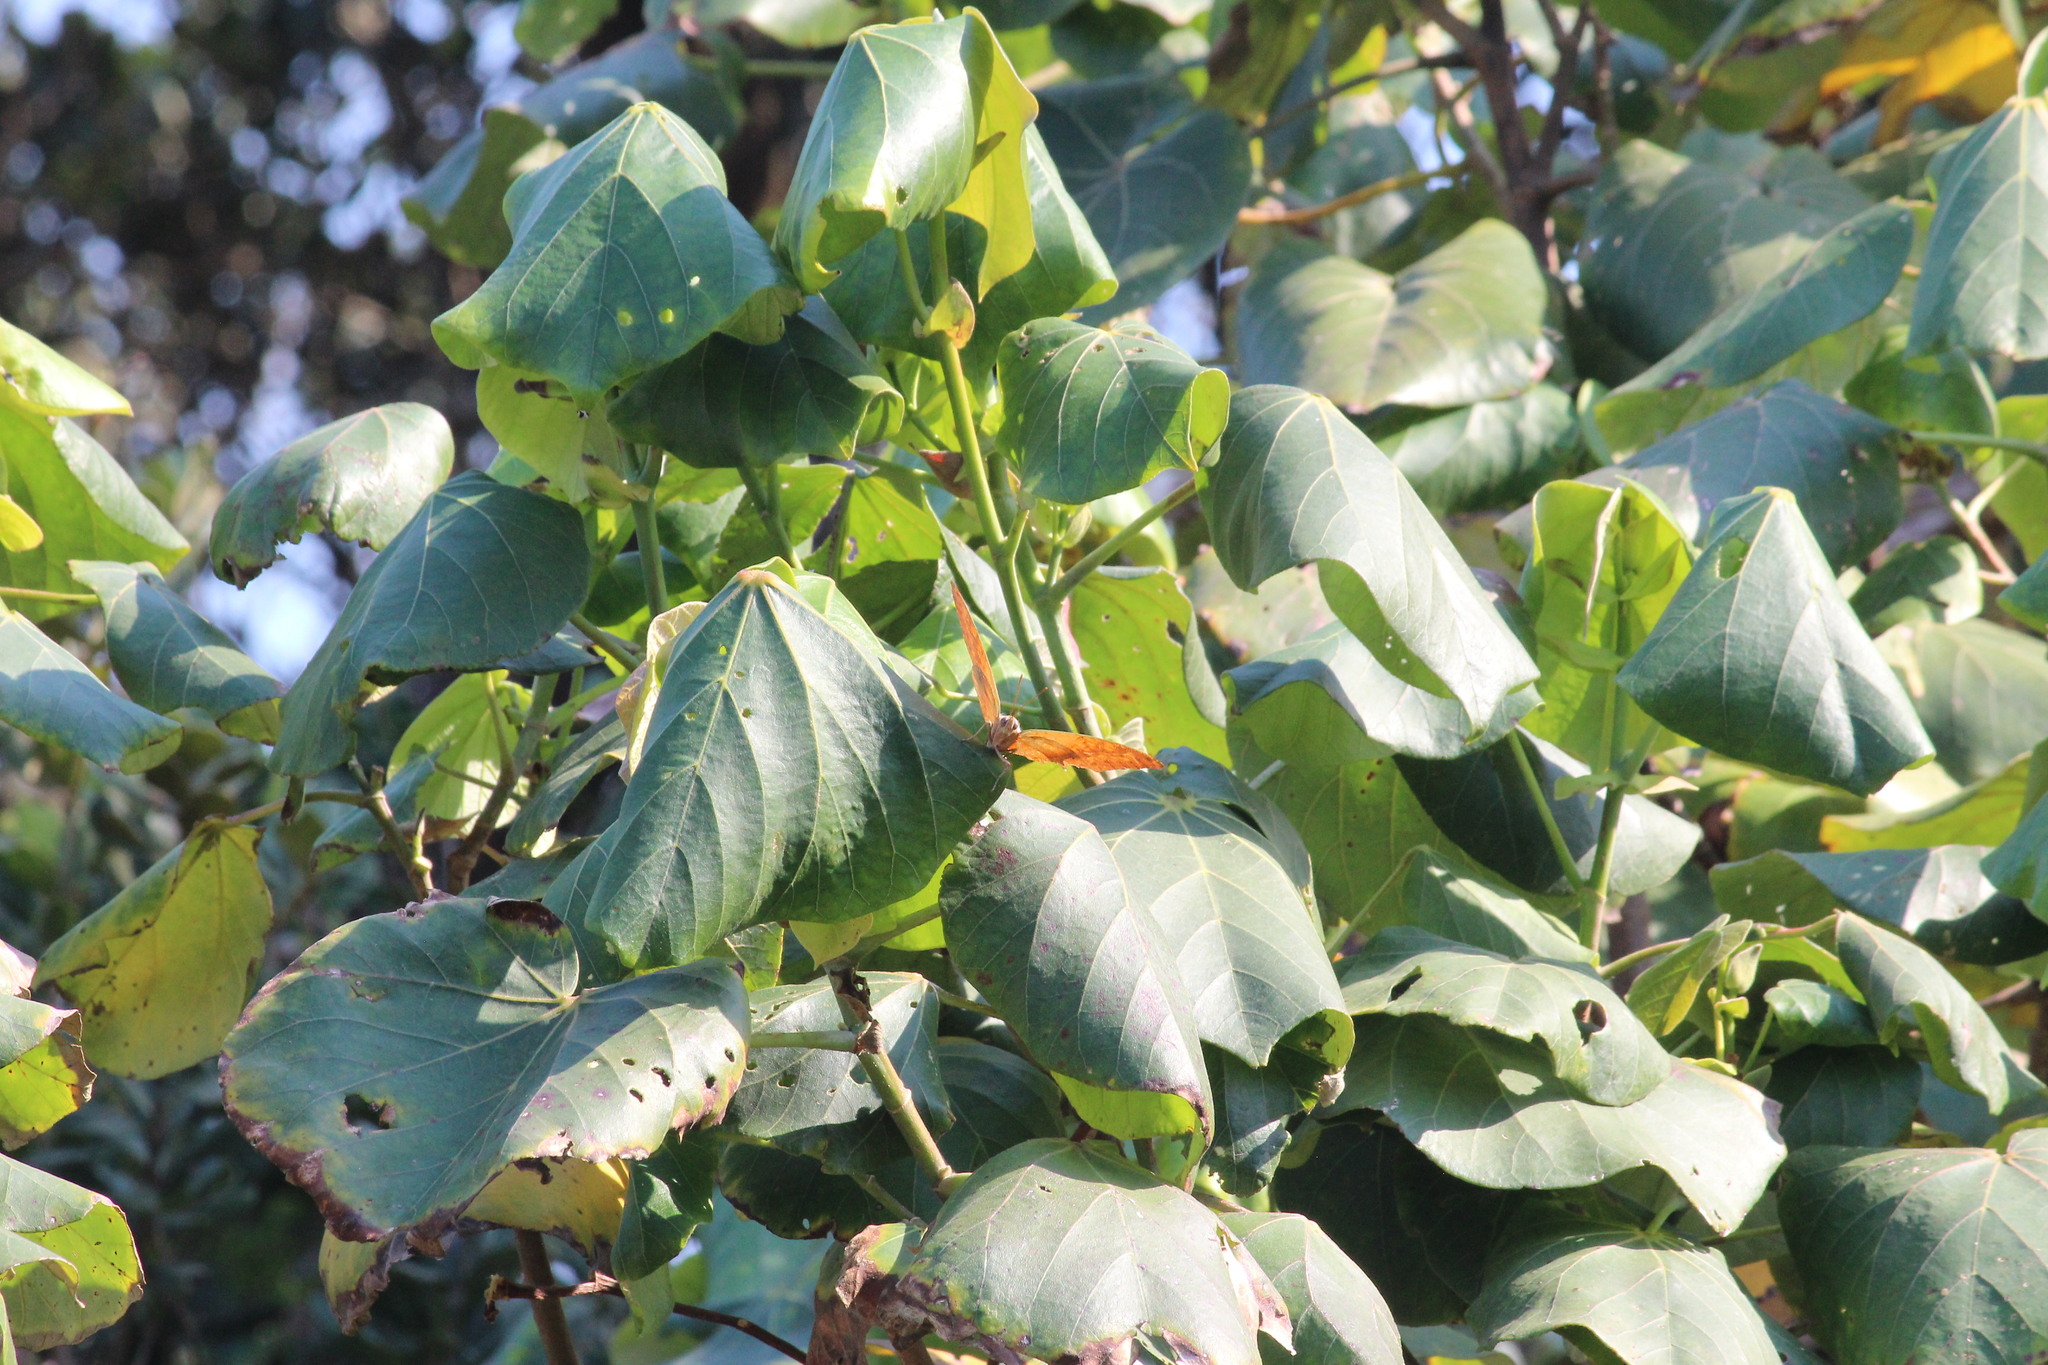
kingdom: Animalia
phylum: Arthropoda
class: Insecta
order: Lepidoptera
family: Nymphalidae
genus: Charaxes
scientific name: Charaxes varanes
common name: Common pearl charaxes
